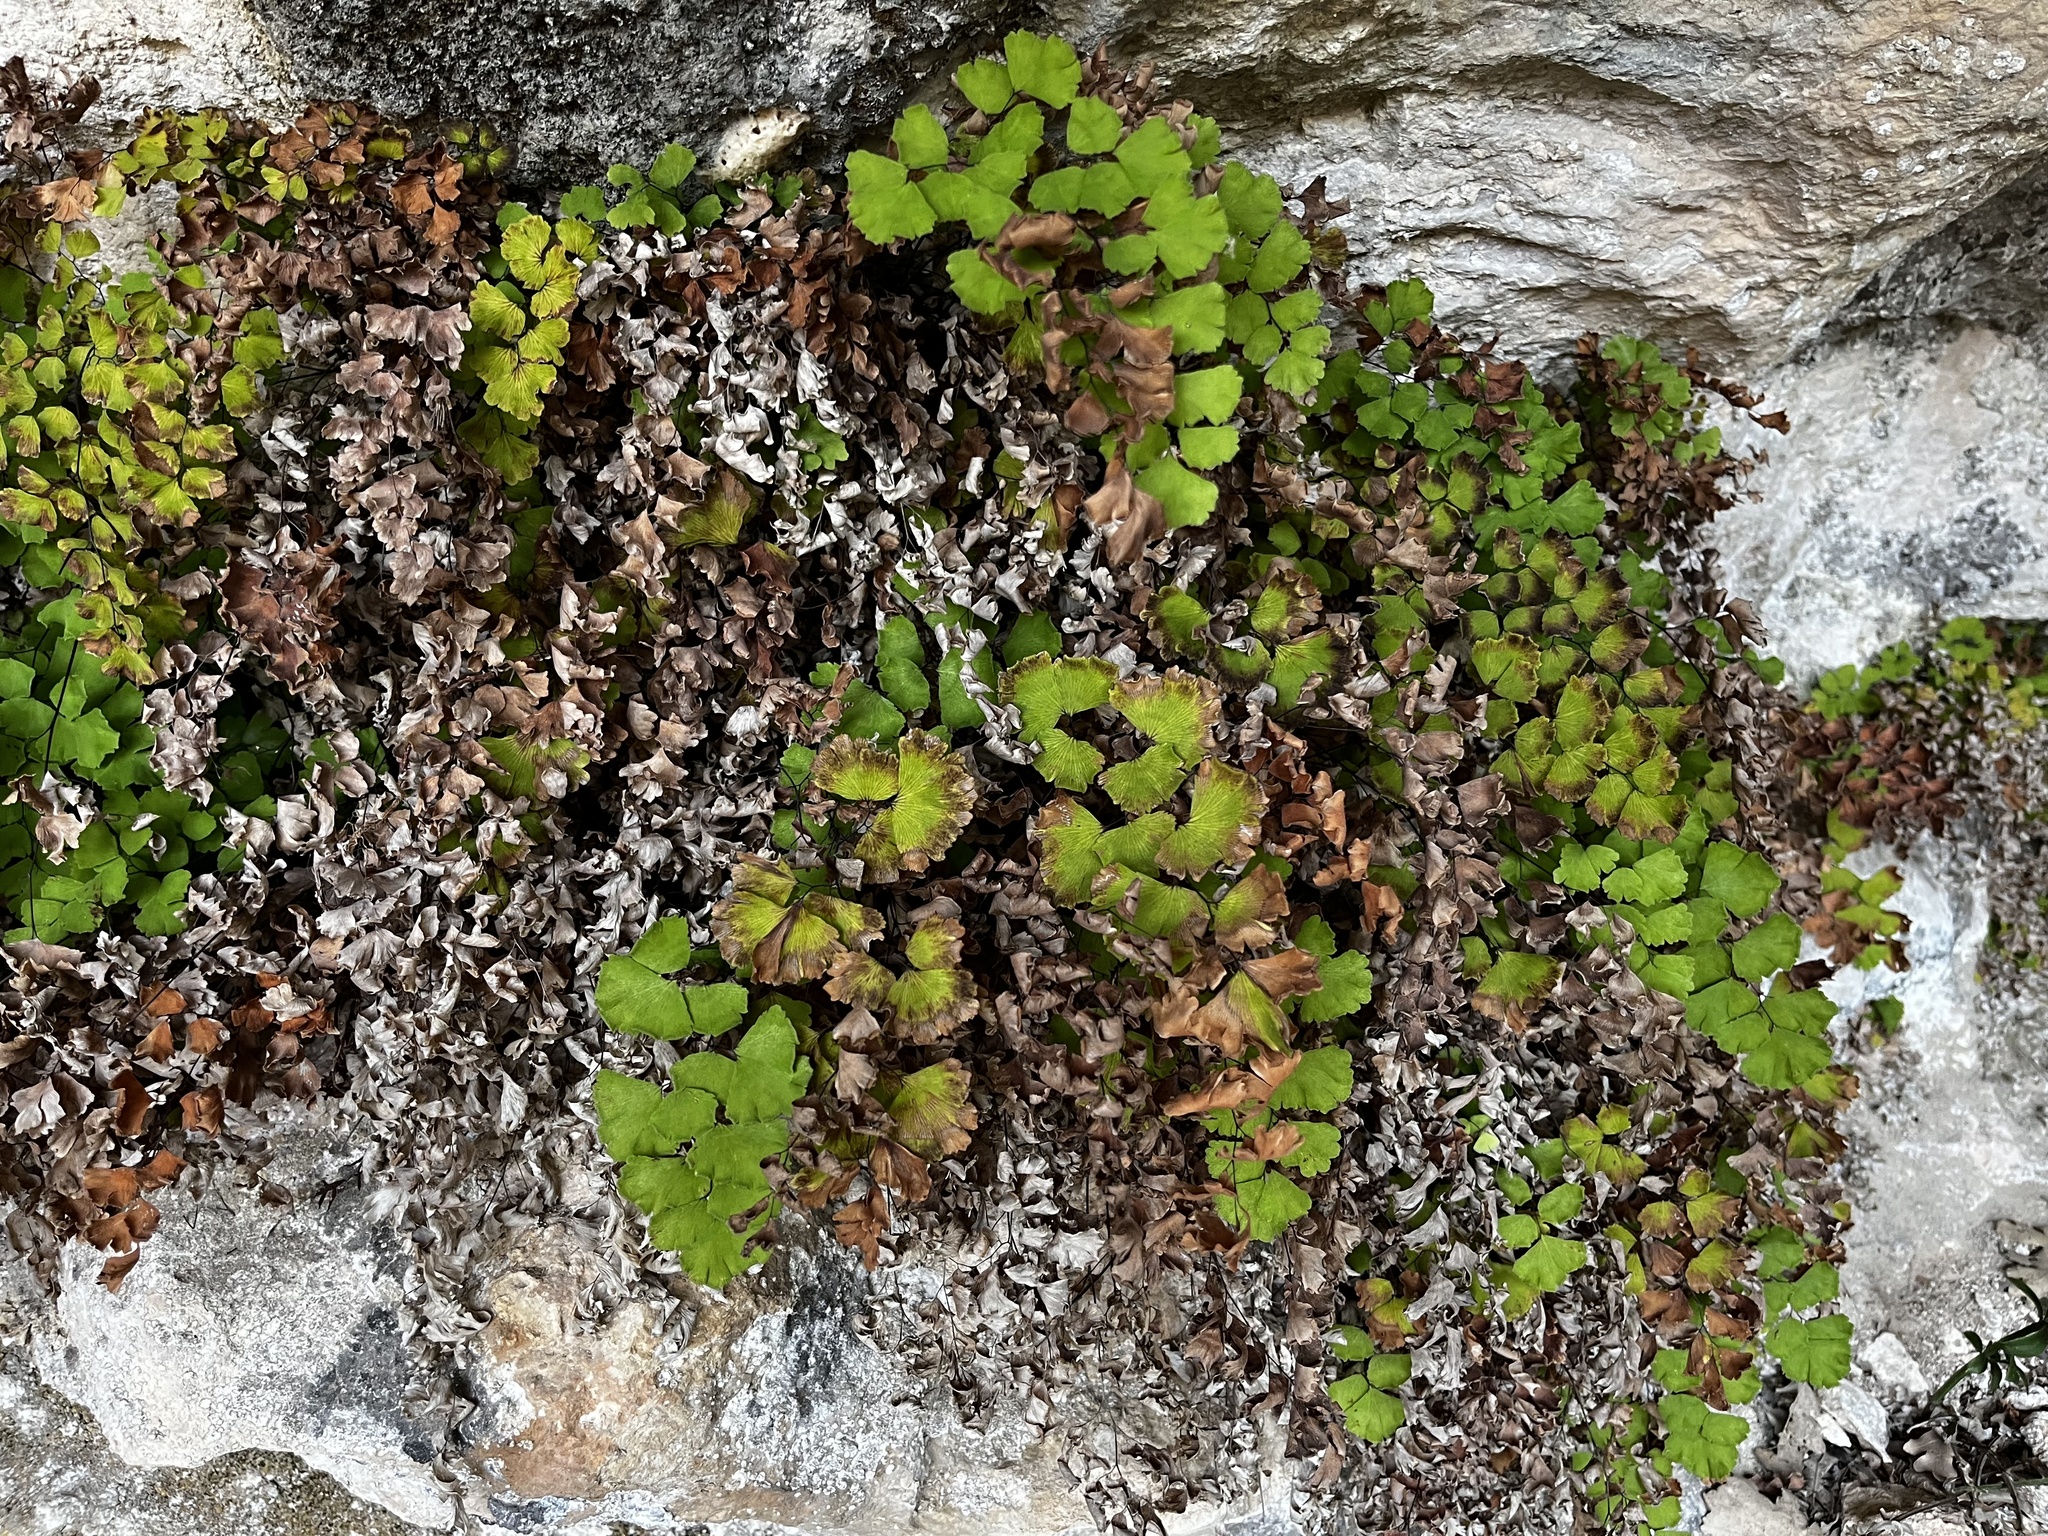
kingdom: Plantae
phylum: Tracheophyta
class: Polypodiopsida
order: Polypodiales
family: Pteridaceae
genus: Adiantum
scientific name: Adiantum capillus-veneris
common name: Maidenhair fern
